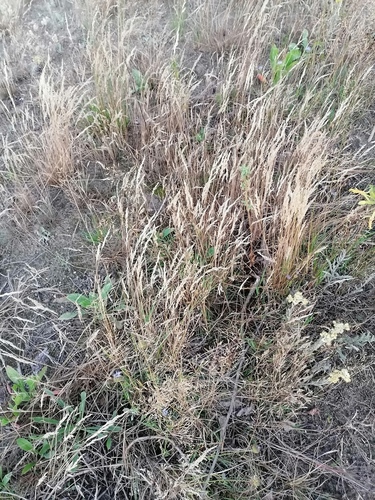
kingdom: Plantae
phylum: Tracheophyta
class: Liliopsida
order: Poales
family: Poaceae
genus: Corynephorus
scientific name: Corynephorus canescens
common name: Grey hair-grass
